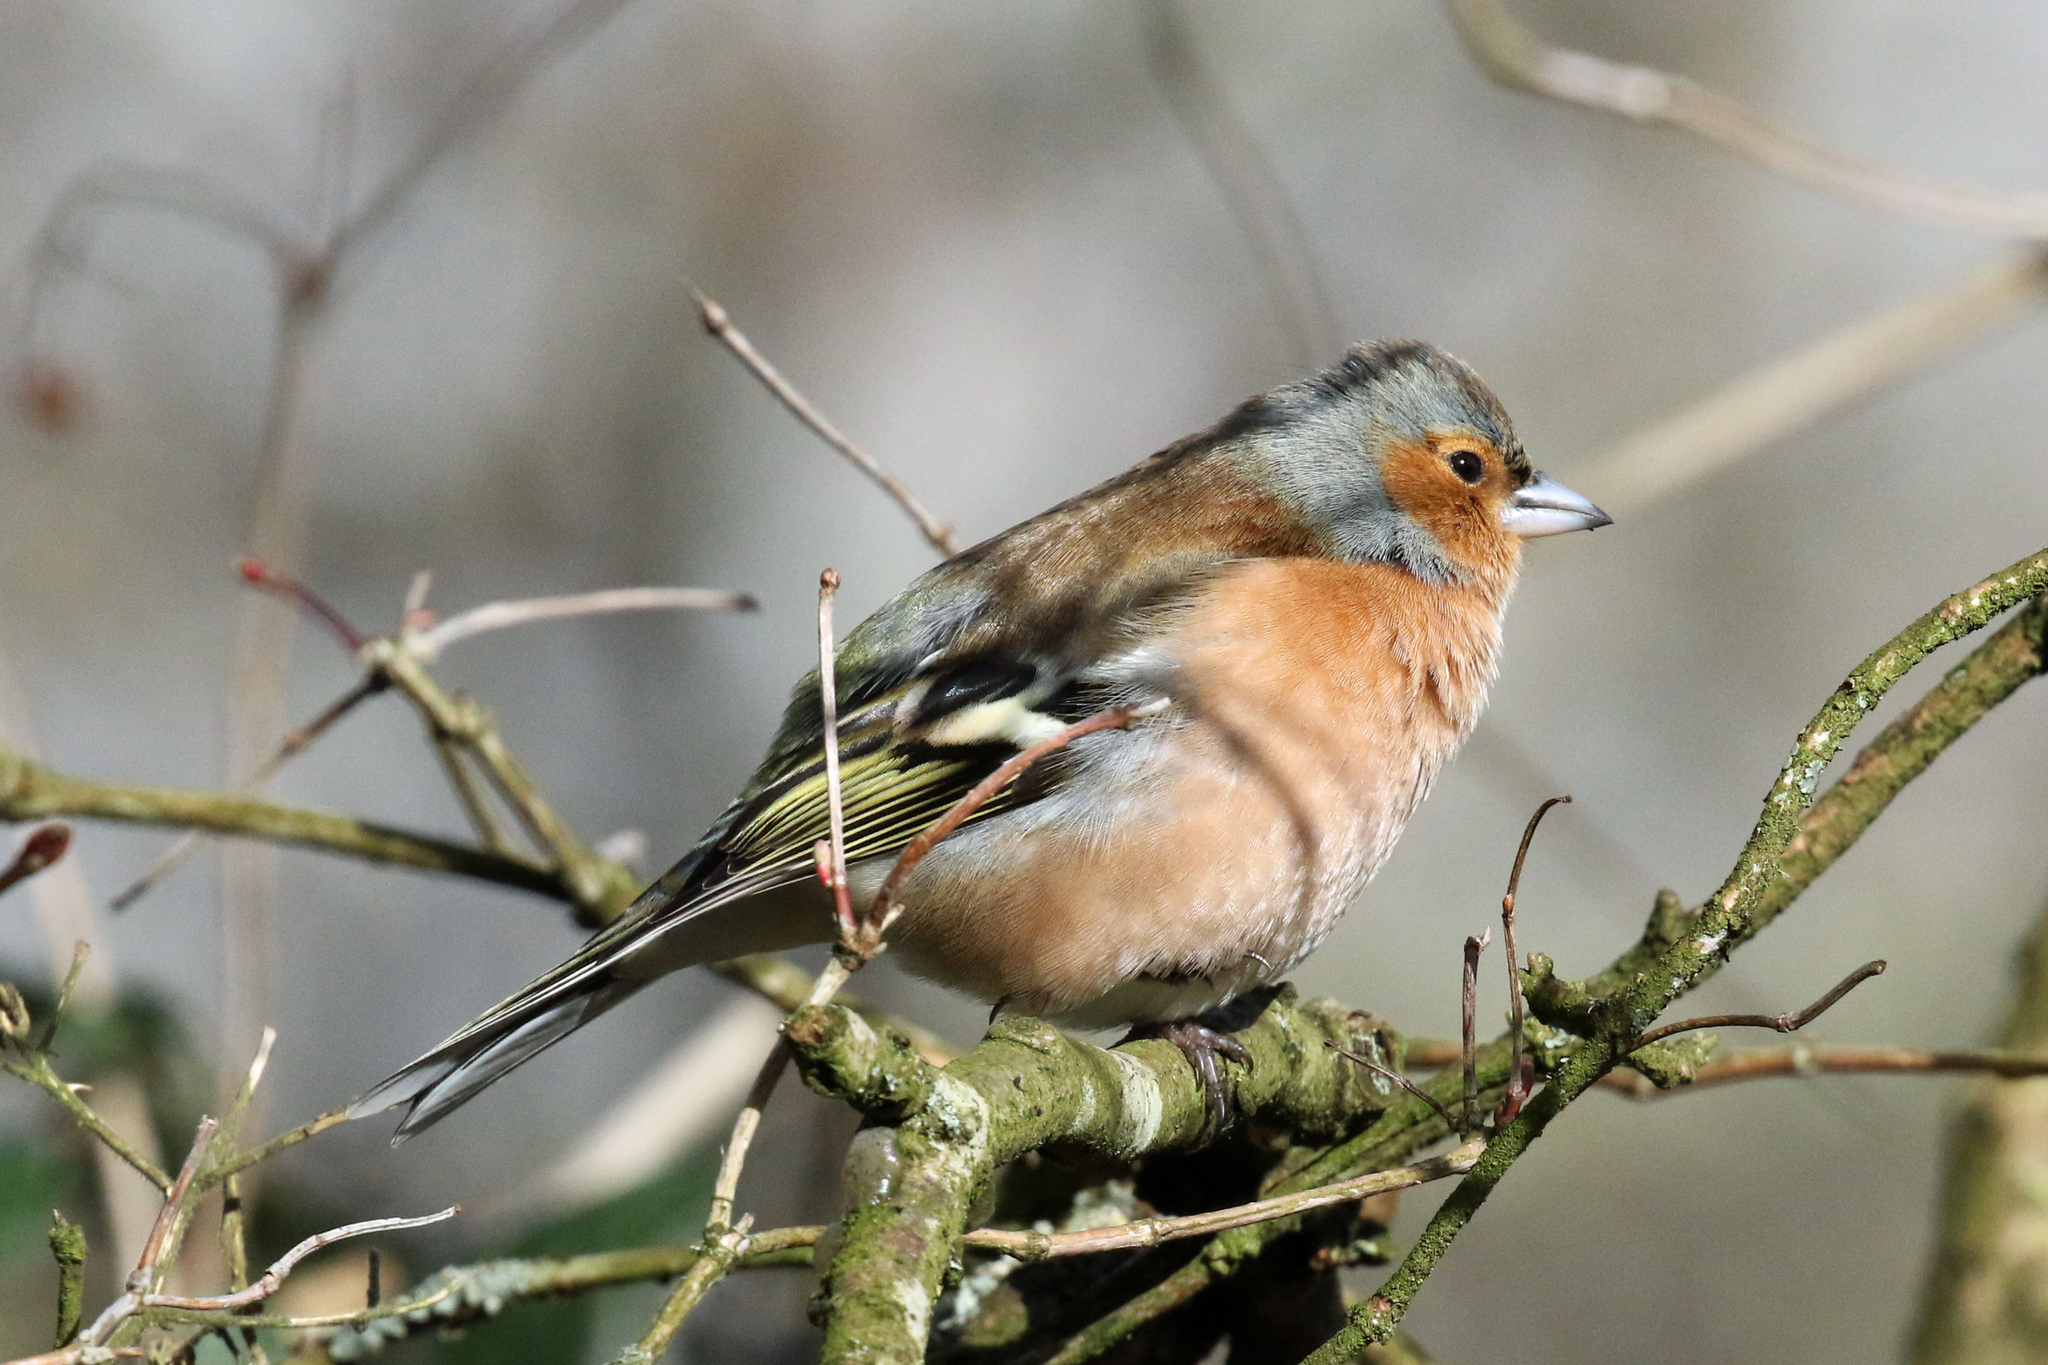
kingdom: Animalia
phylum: Chordata
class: Aves
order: Passeriformes
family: Fringillidae
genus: Fringilla
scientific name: Fringilla coelebs
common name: Common chaffinch
